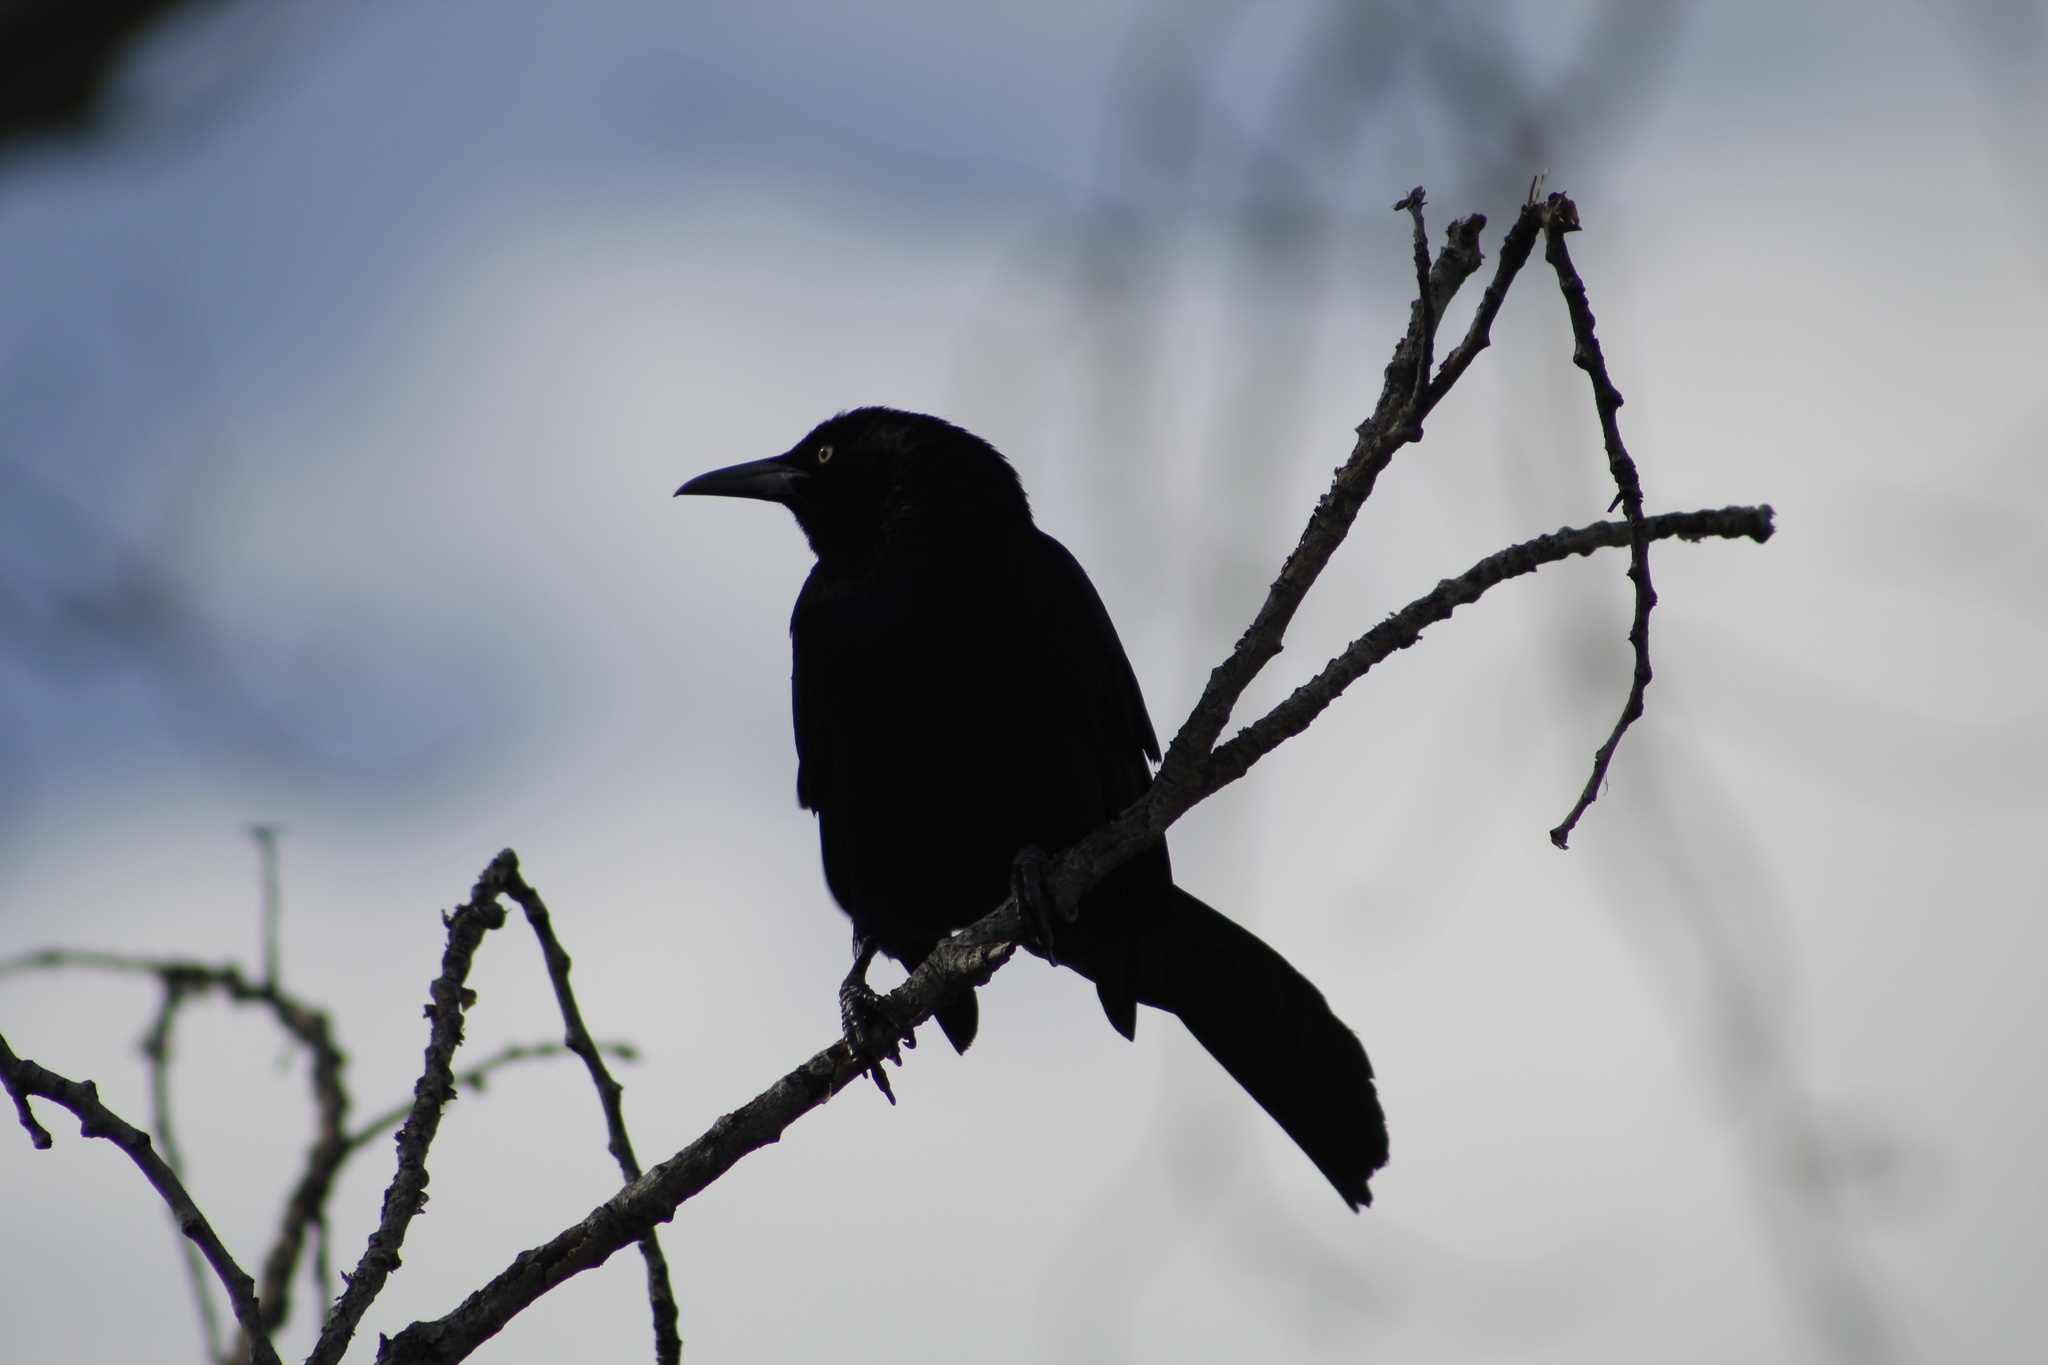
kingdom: Animalia
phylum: Chordata
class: Aves
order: Passeriformes
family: Icteridae
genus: Quiscalus
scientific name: Quiscalus mexicanus
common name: Great-tailed grackle
